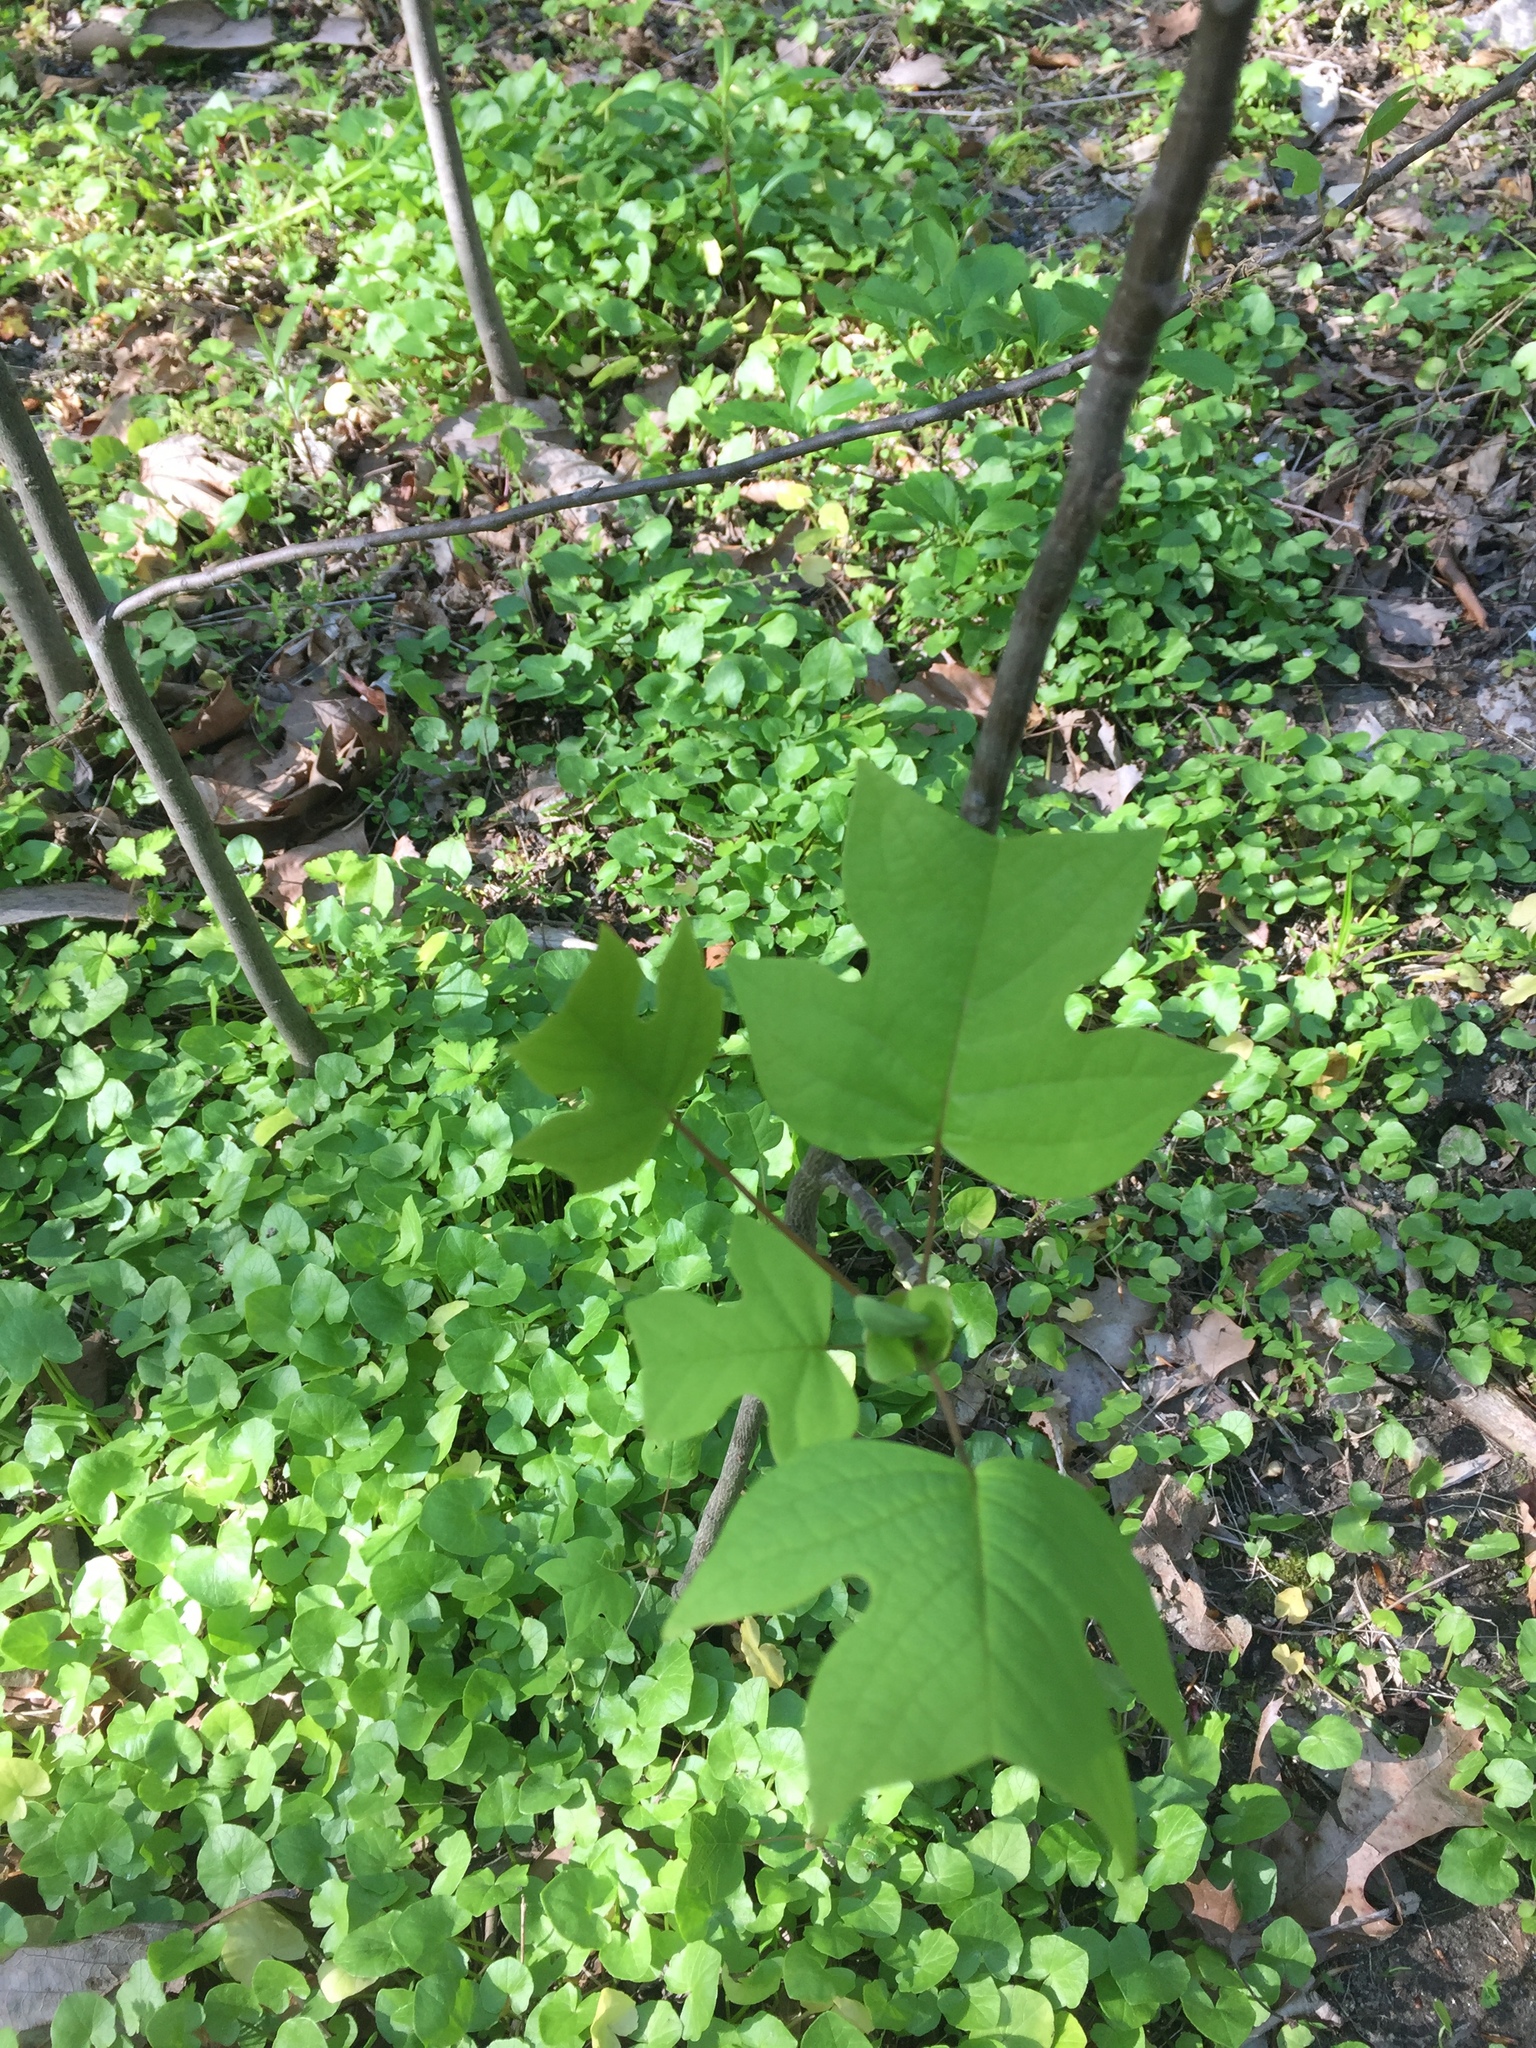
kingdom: Plantae
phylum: Tracheophyta
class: Magnoliopsida
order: Magnoliales
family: Magnoliaceae
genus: Liriodendron
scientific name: Liriodendron tulipifera
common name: Tulip tree
